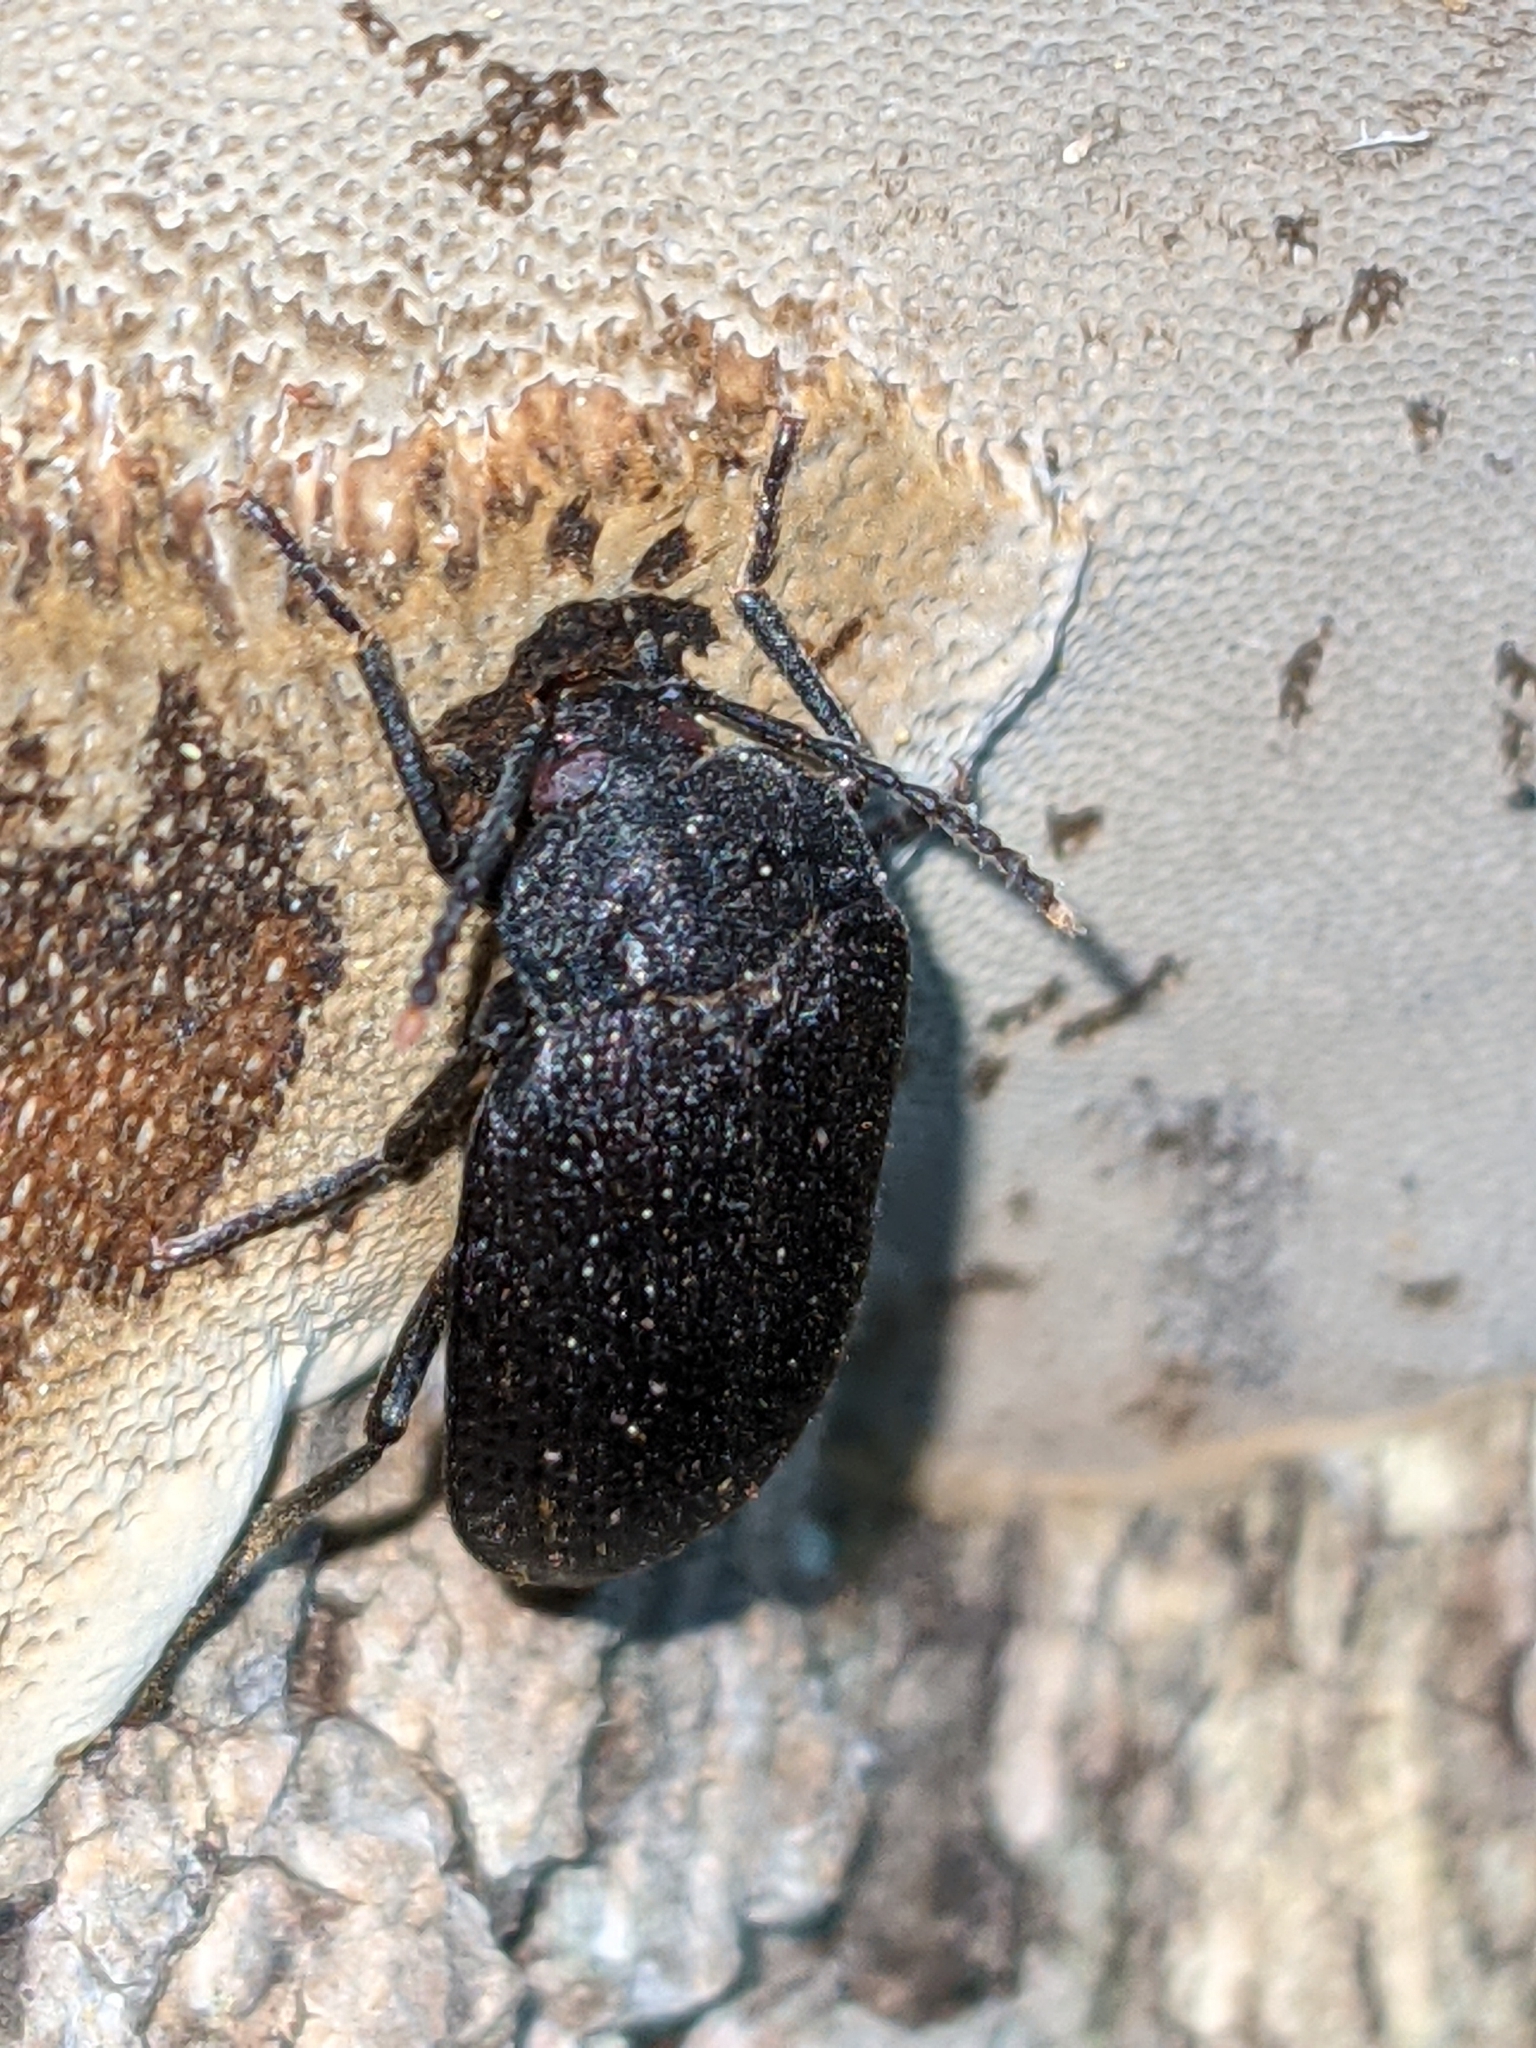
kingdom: Animalia
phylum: Arthropoda
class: Insecta
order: Coleoptera
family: Tetratomidae
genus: Penthe
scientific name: Penthe pimelia
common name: Velvety bark beetle
